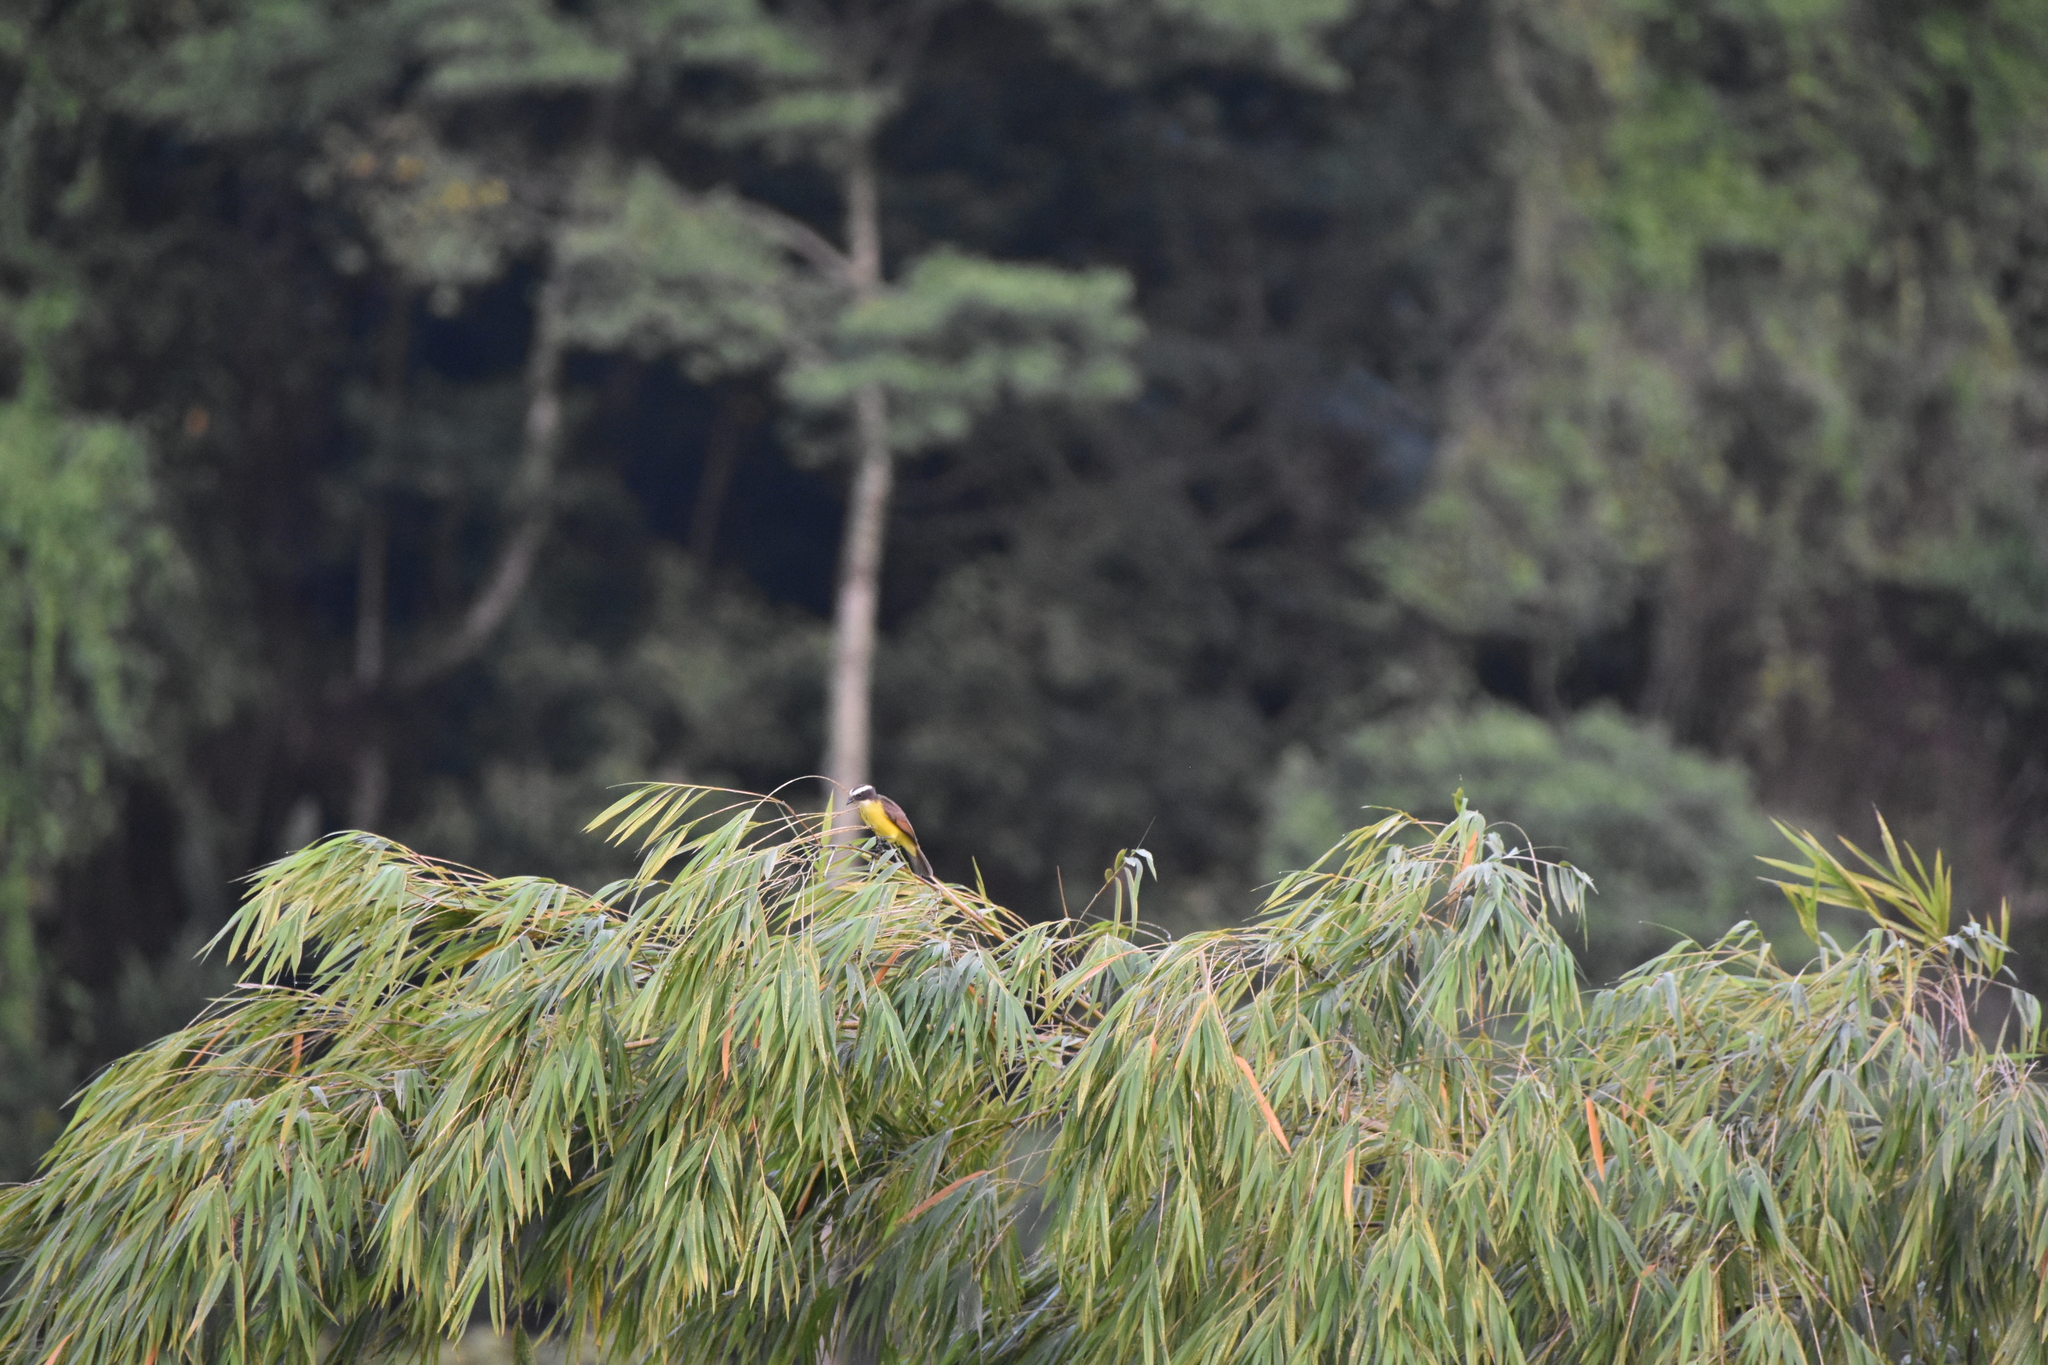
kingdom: Animalia
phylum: Chordata
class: Aves
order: Passeriformes
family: Tyrannidae
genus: Myiozetetes
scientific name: Myiozetetes cayanensis
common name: Rusty-margined flycatcher
